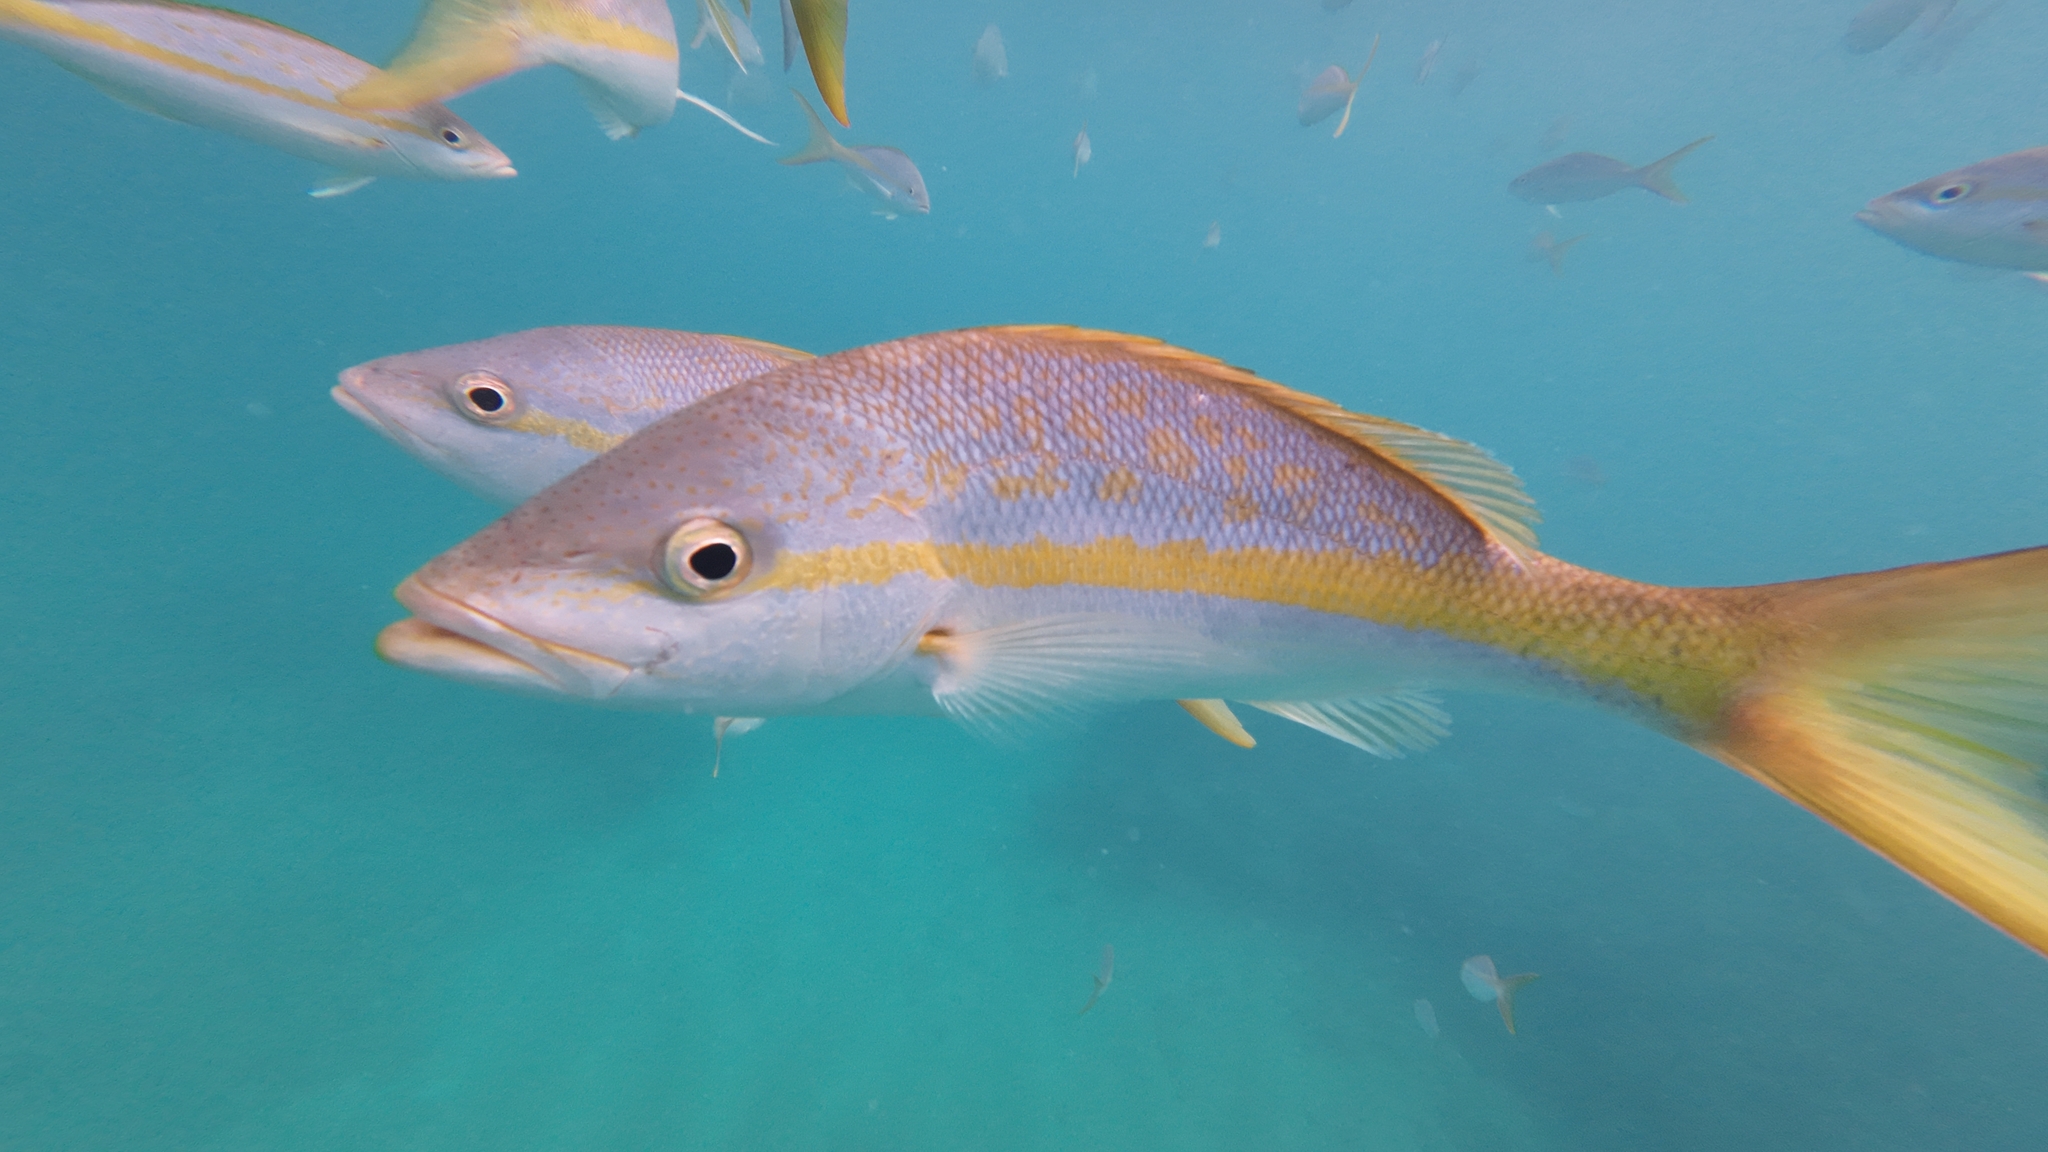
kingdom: Animalia
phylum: Chordata
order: Perciformes
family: Lutjanidae
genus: Ocyurus
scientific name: Ocyurus chrysurus
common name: Yellowtail snapper
